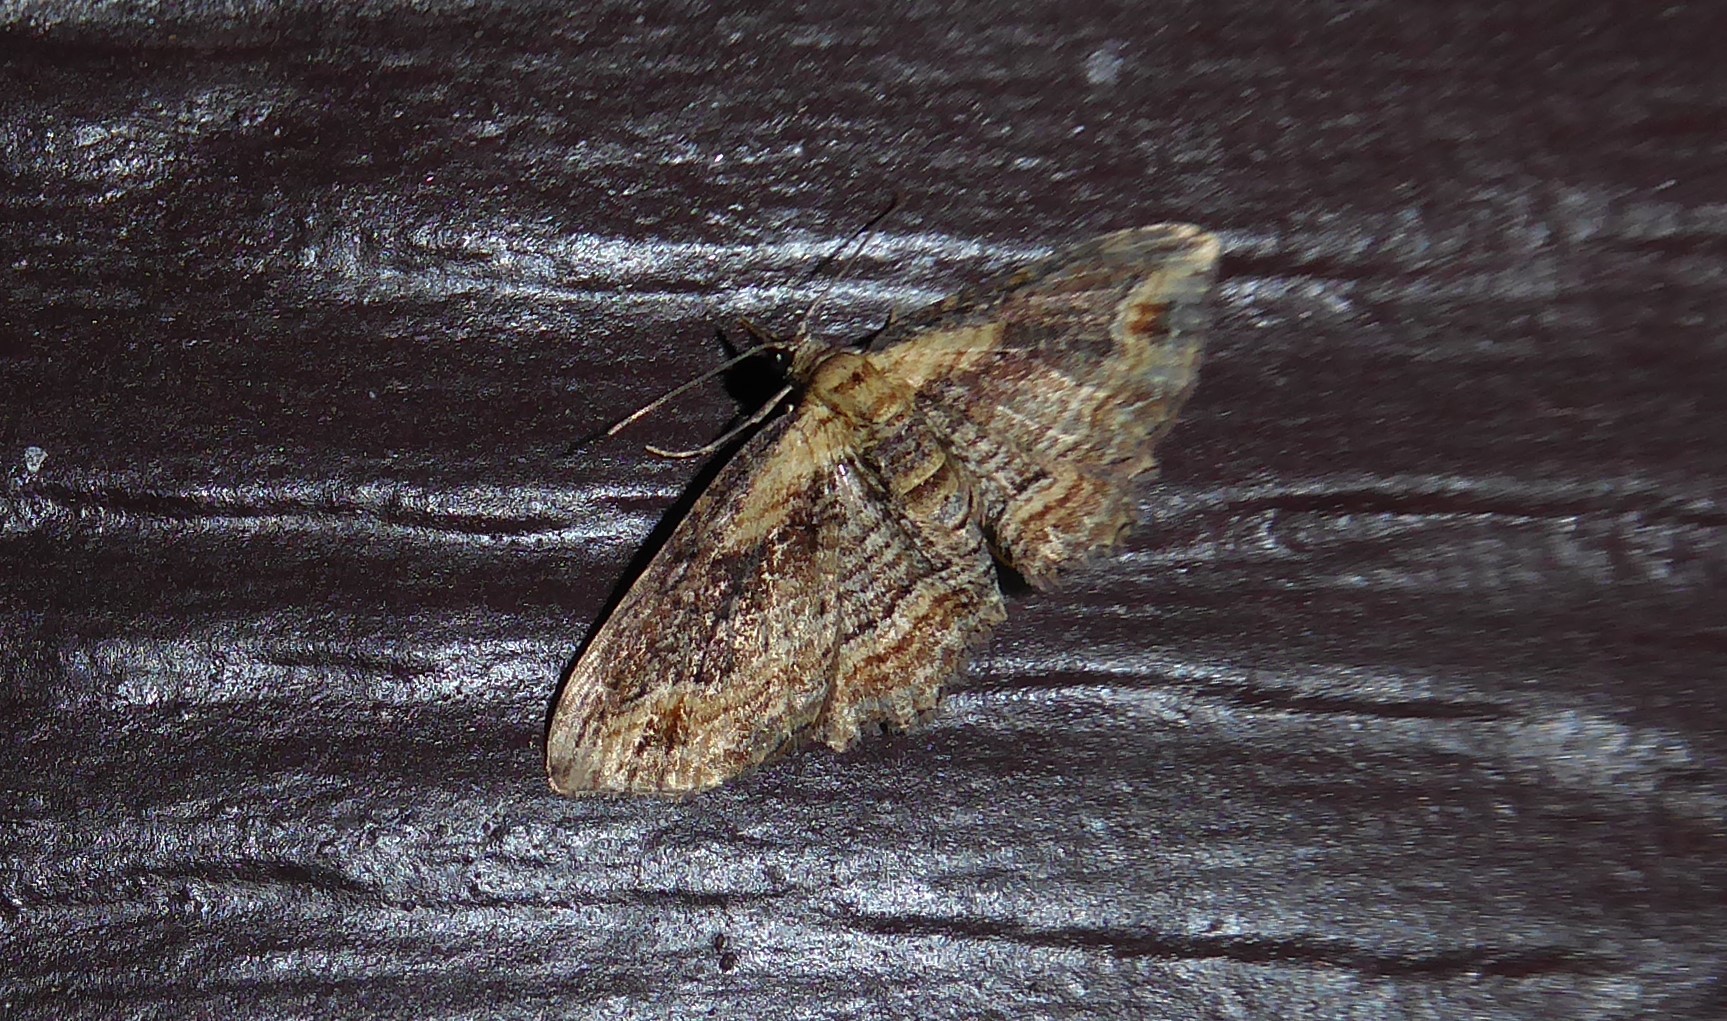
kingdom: Animalia
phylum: Arthropoda
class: Insecta
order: Lepidoptera
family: Geometridae
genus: Chloroclystis
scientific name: Chloroclystis filata
